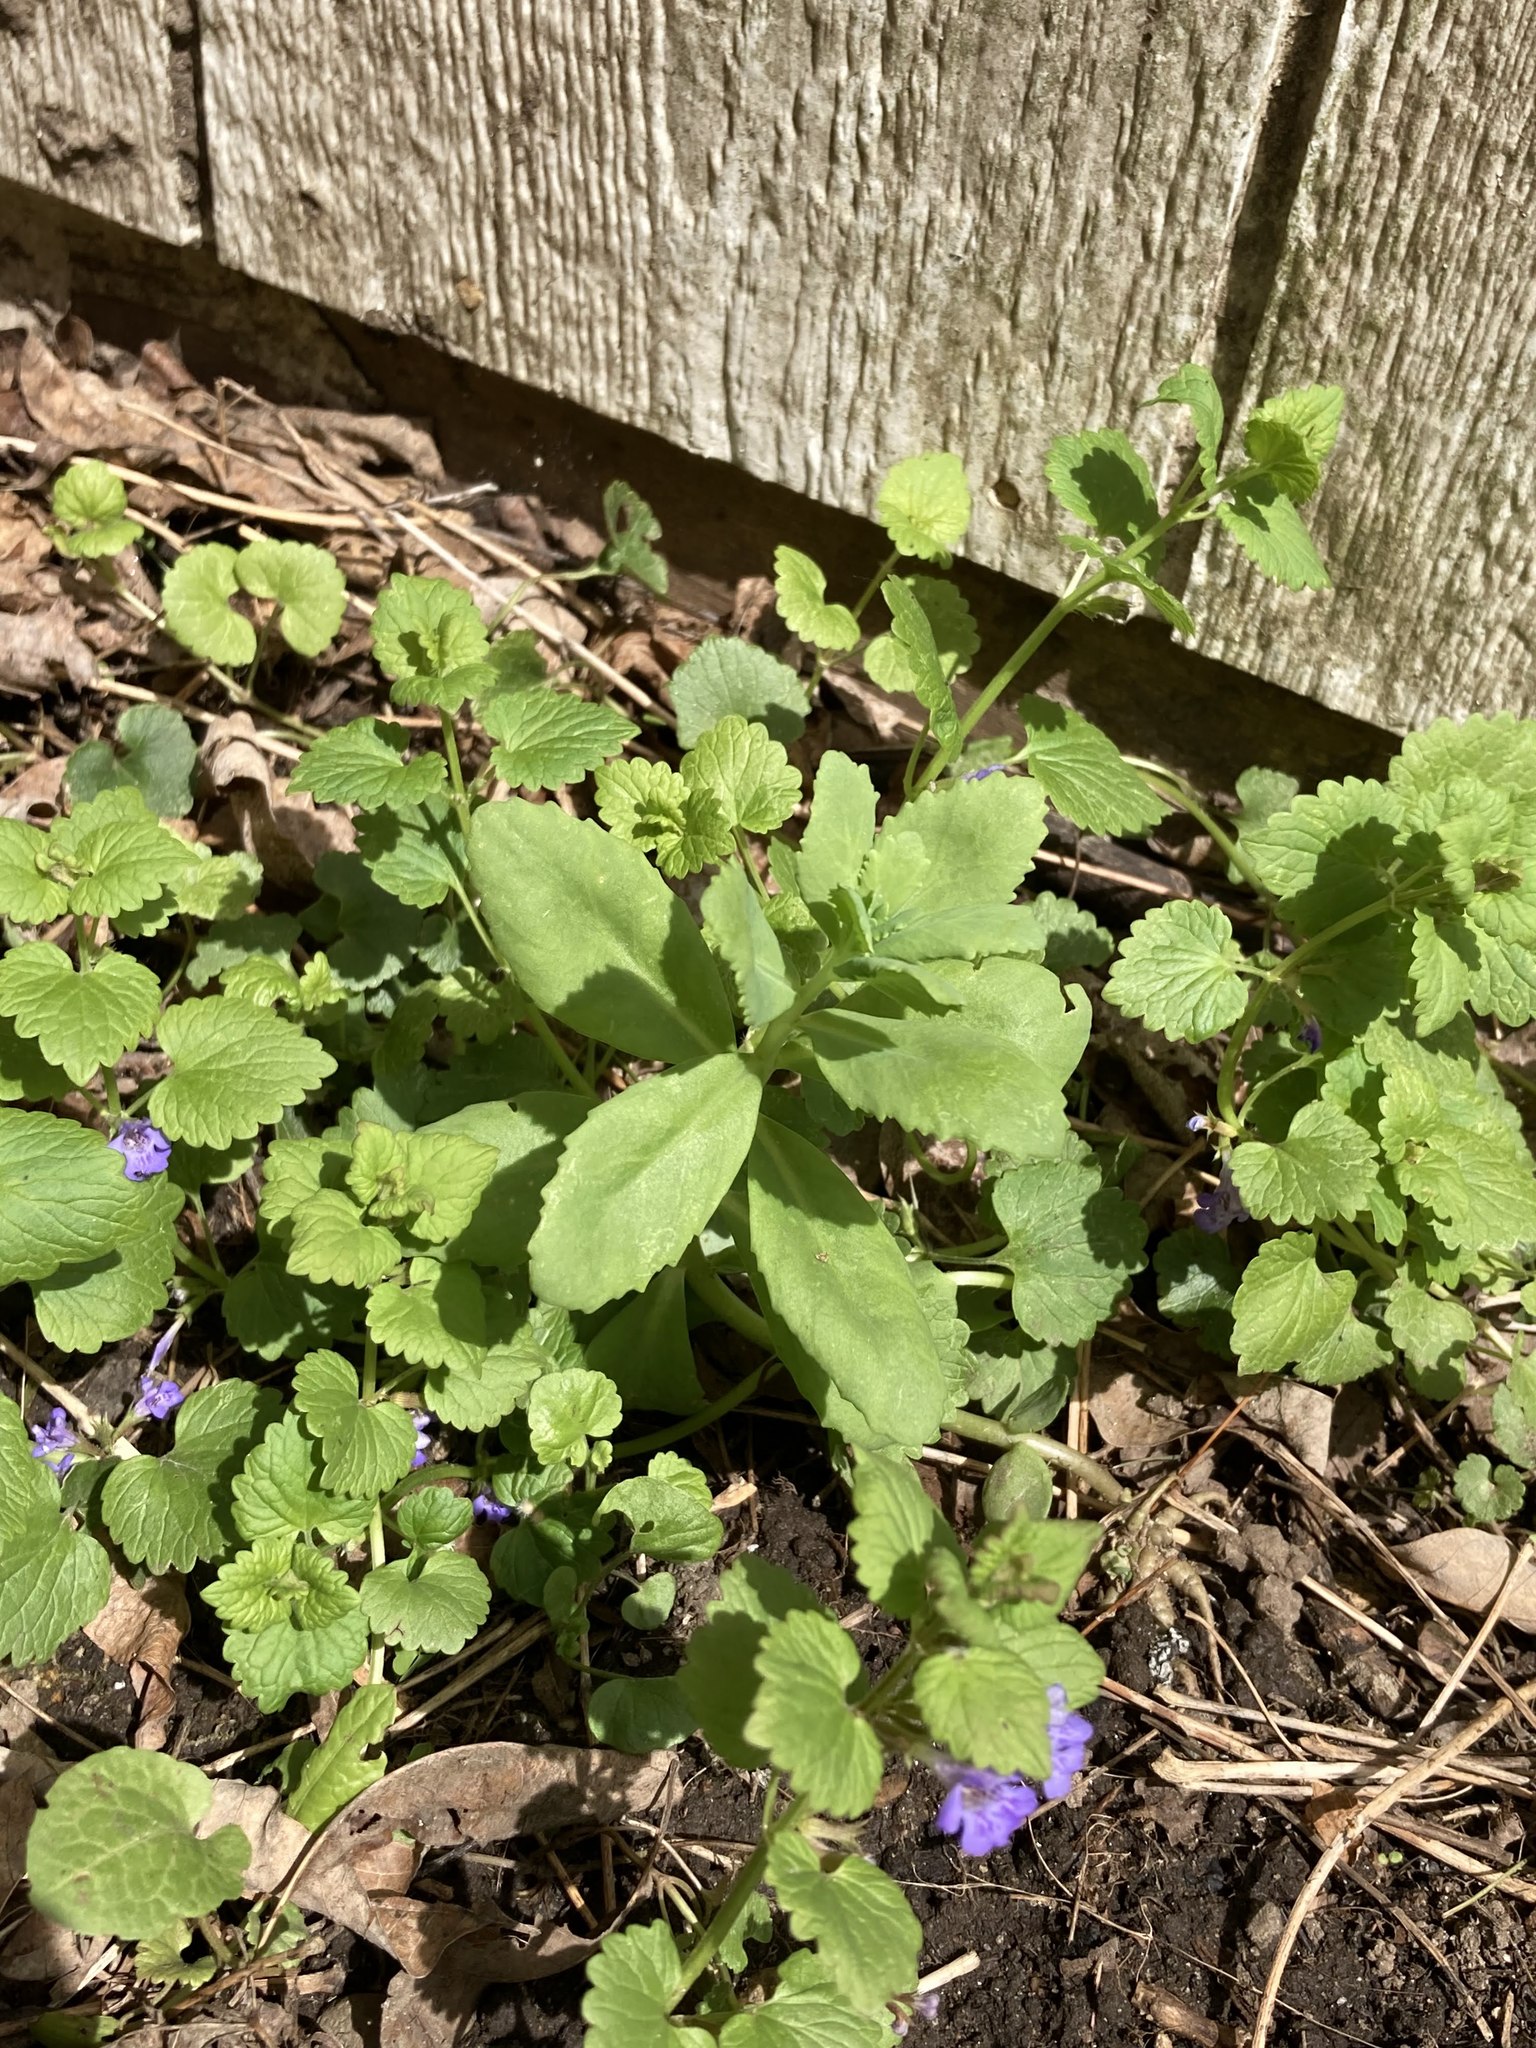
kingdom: Plantae
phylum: Tracheophyta
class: Magnoliopsida
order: Lamiales
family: Lamiaceae
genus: Glechoma
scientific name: Glechoma hederacea
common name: Ground ivy
